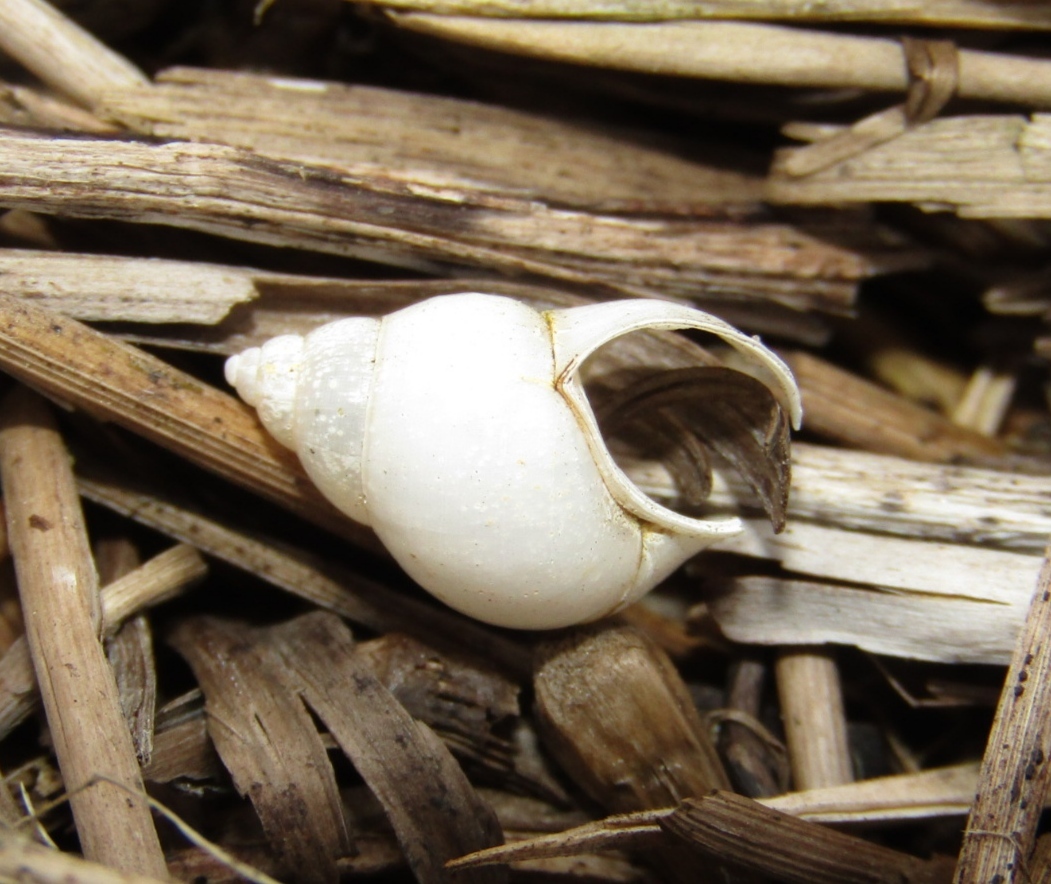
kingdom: Animalia
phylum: Mollusca
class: Gastropoda
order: Littorinimorpha
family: Bithyniidae
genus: Bithynia
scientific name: Bithynia tentaculata
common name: Common bithynia
